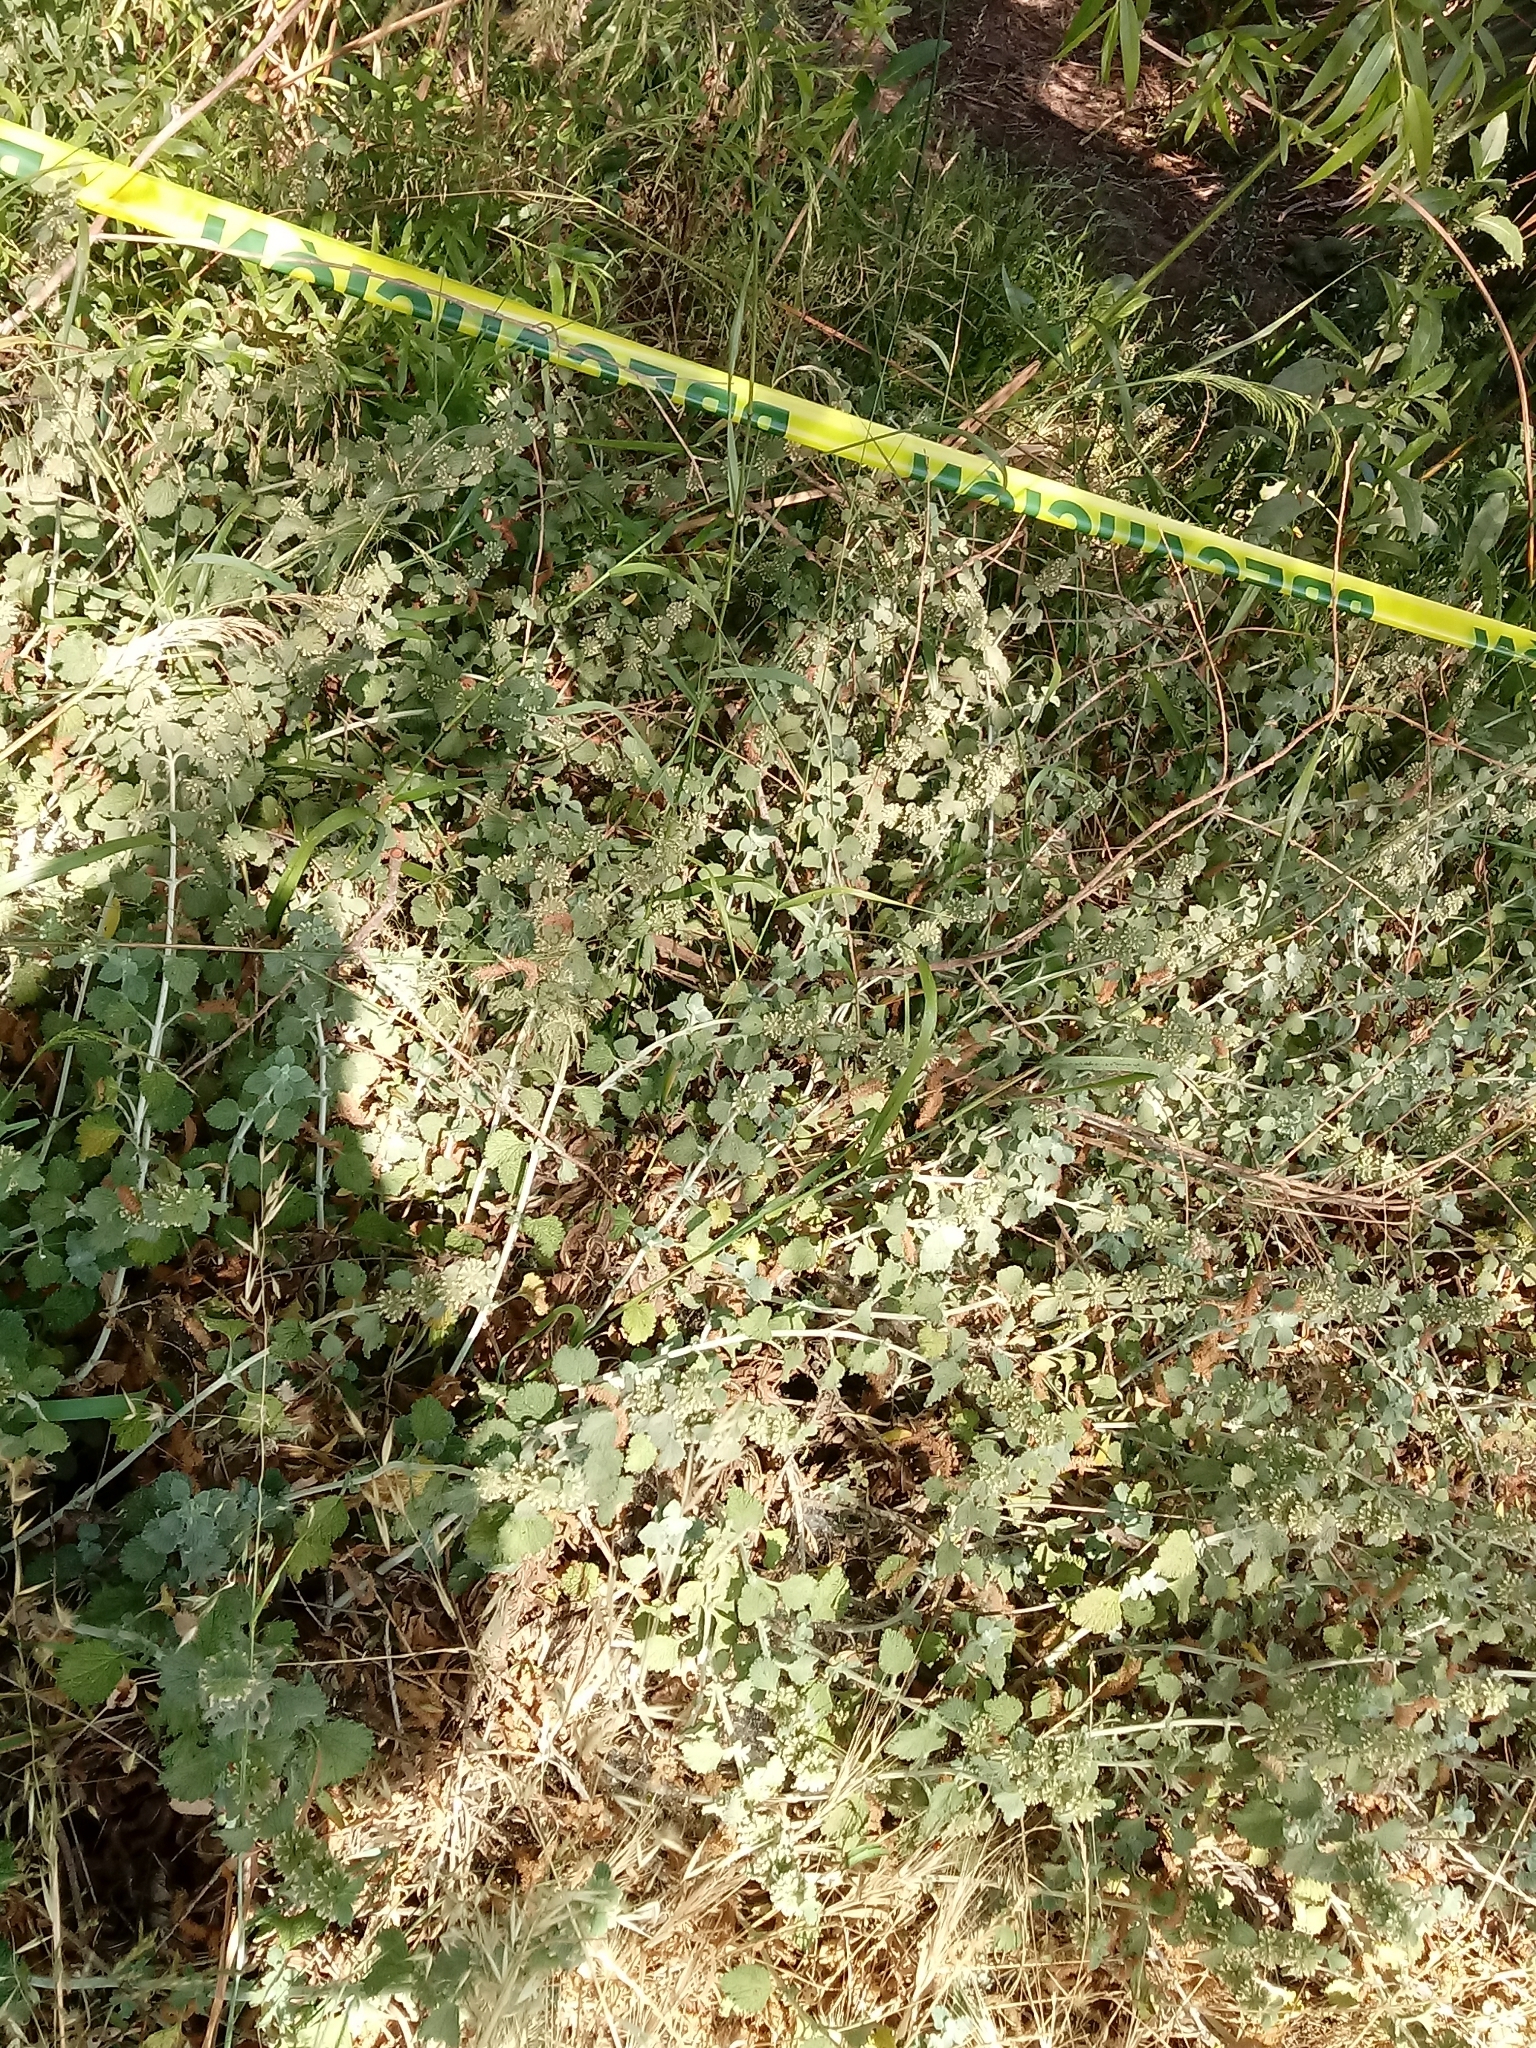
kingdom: Plantae
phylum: Tracheophyta
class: Magnoliopsida
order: Lamiales
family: Lamiaceae
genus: Marrubium
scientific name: Marrubium vulgare
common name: Horehound
